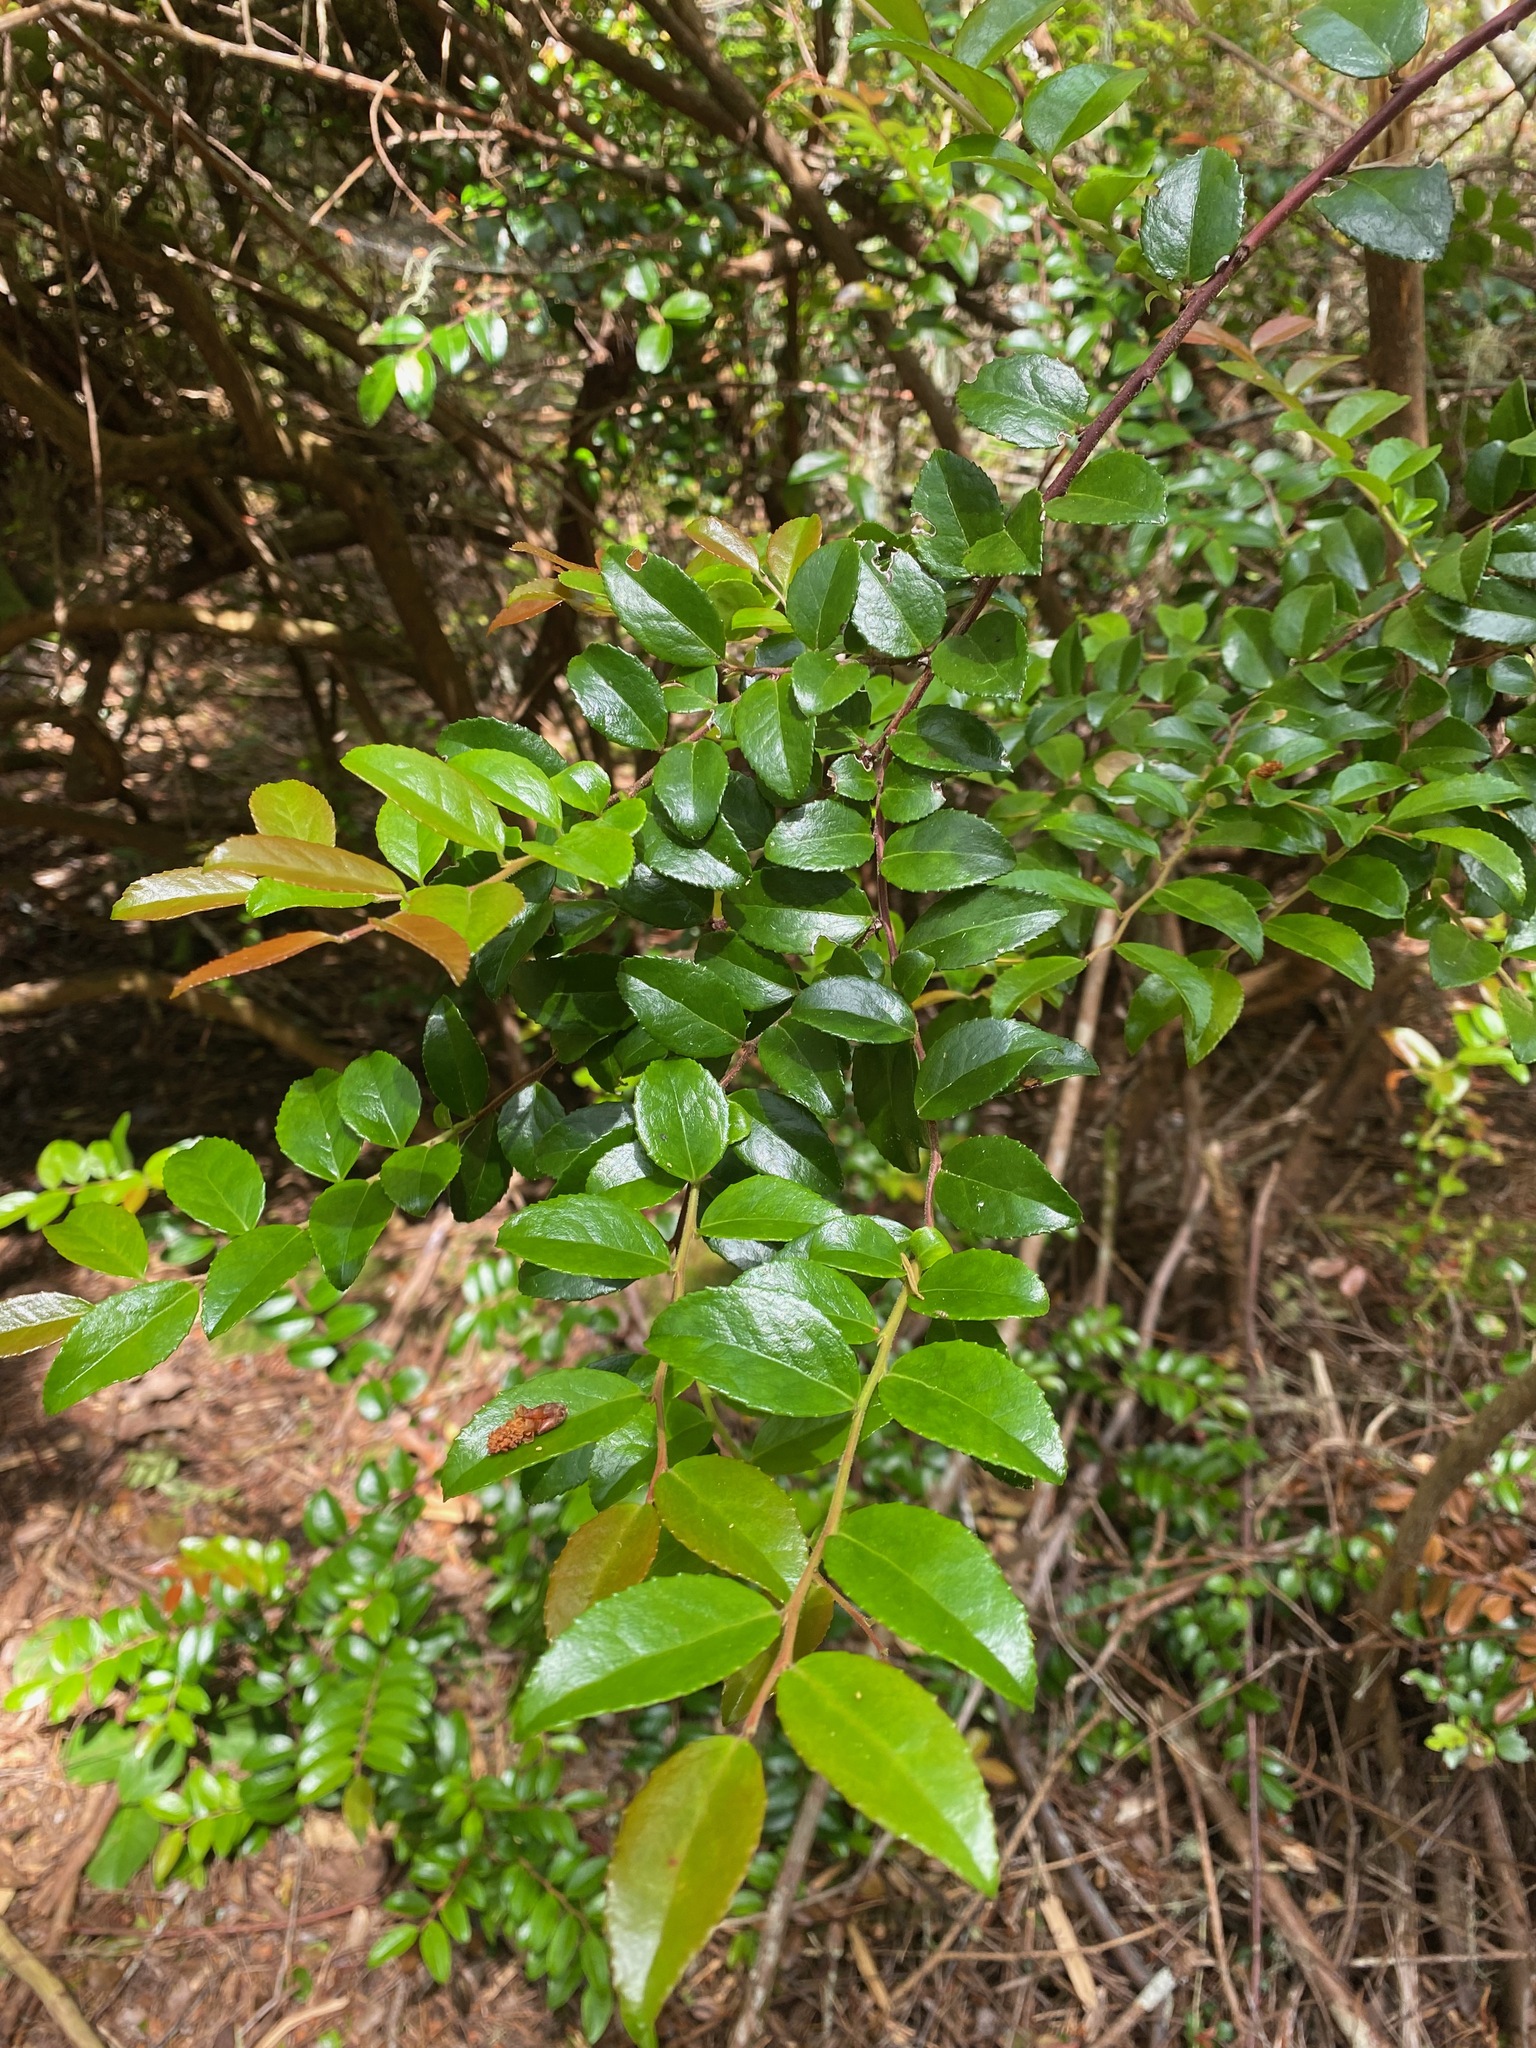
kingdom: Plantae
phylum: Tracheophyta
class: Magnoliopsida
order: Ericales
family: Ericaceae
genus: Vaccinium
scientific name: Vaccinium ovatum
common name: California-huckleberry
